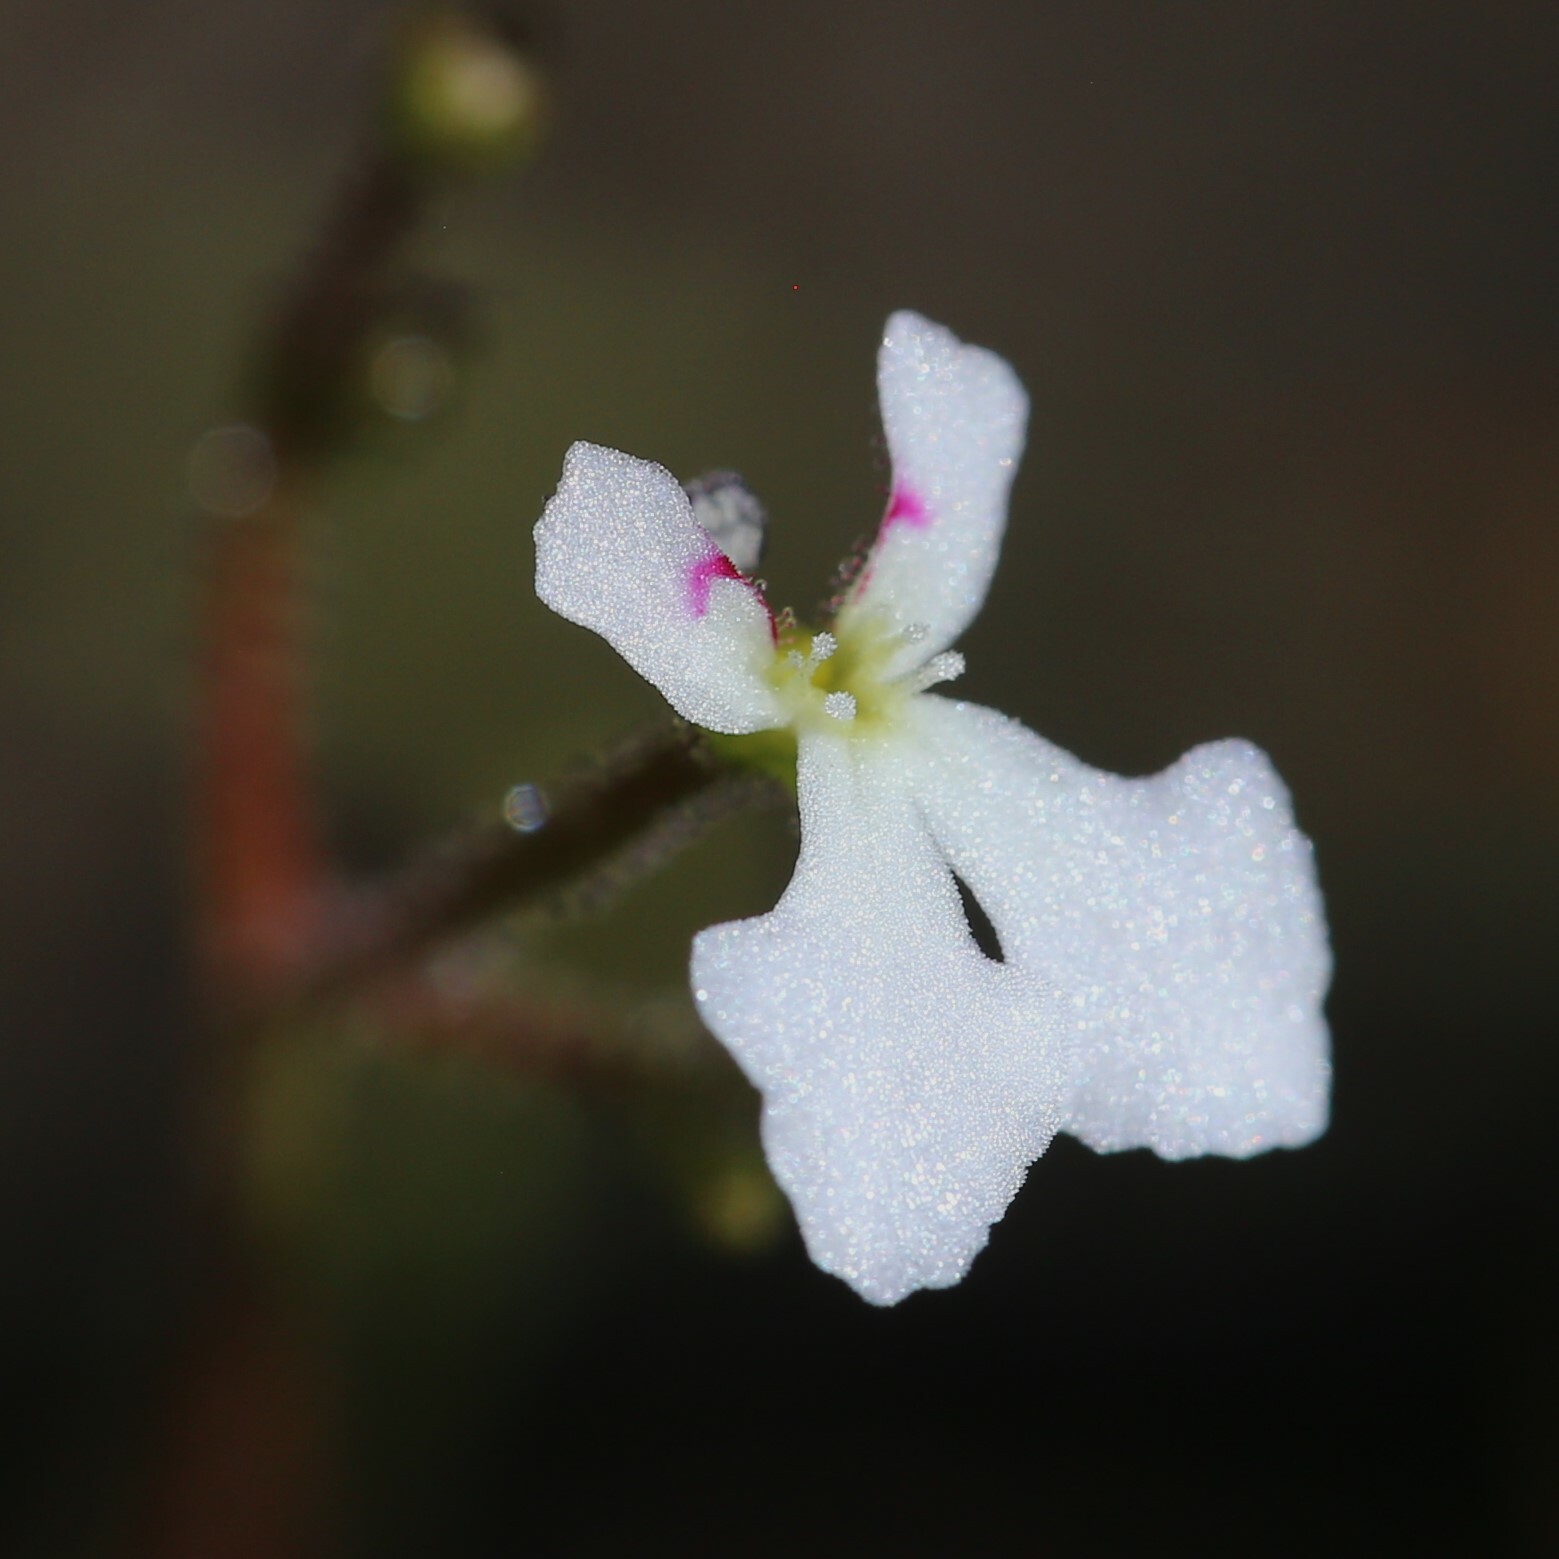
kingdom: Plantae
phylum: Tracheophyta
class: Magnoliopsida
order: Asterales
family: Stylidiaceae
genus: Stylidium
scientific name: Stylidium utricularioides
